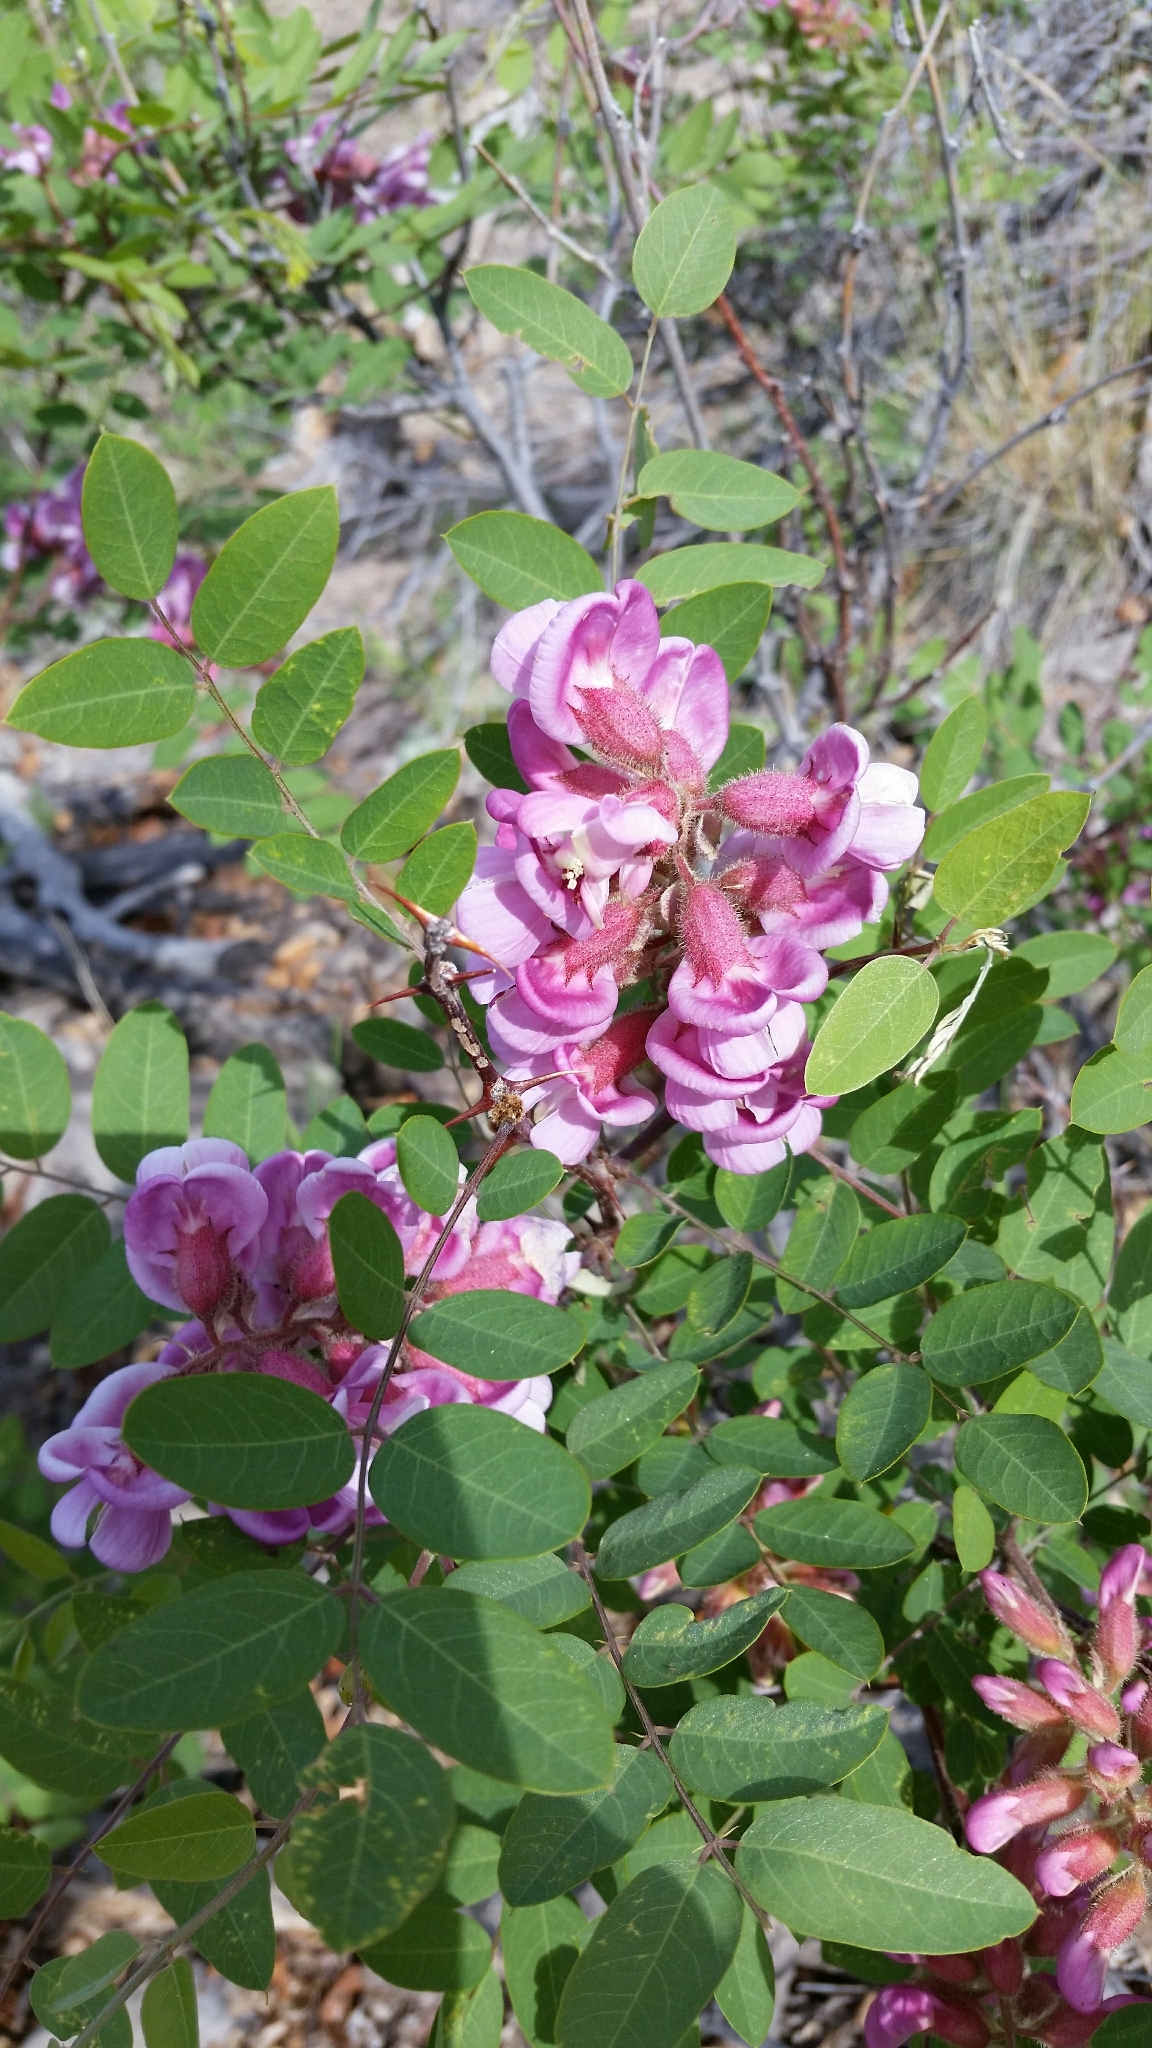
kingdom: Plantae
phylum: Tracheophyta
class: Magnoliopsida
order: Fabales
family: Fabaceae
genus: Robinia
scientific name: Robinia neomexicana
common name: New mexico locust
